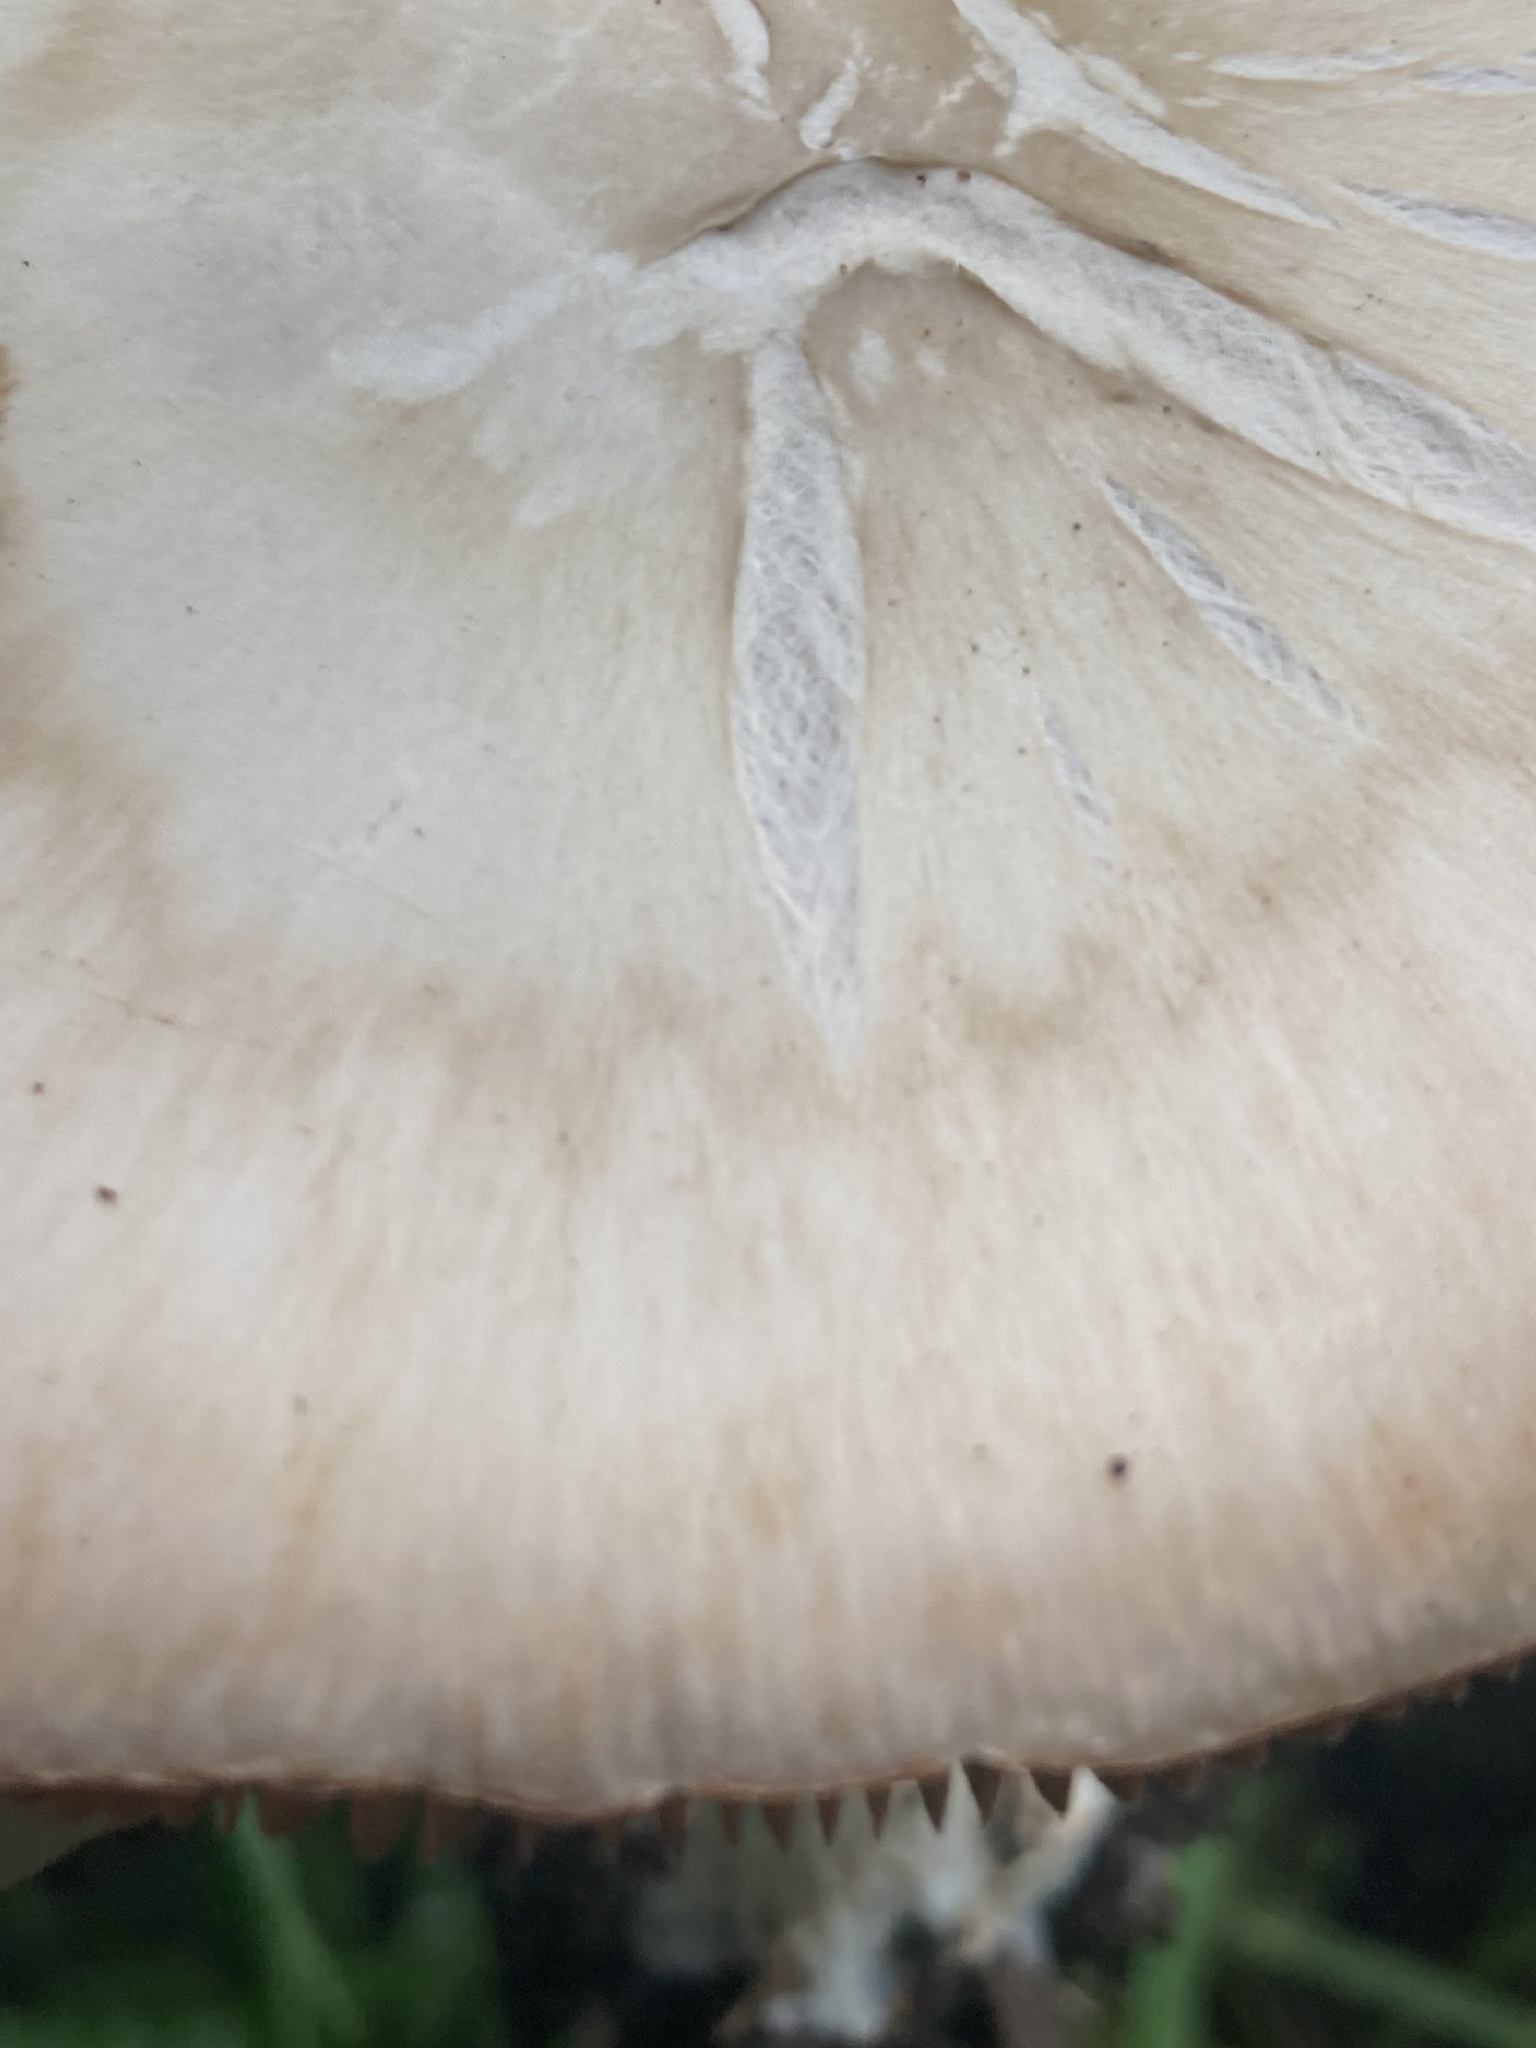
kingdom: Fungi
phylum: Basidiomycota
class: Agaricomycetes
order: Agaricales
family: Pluteaceae
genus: Volvopluteus
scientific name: Volvopluteus gloiocephalus
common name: Stubble rosegill
